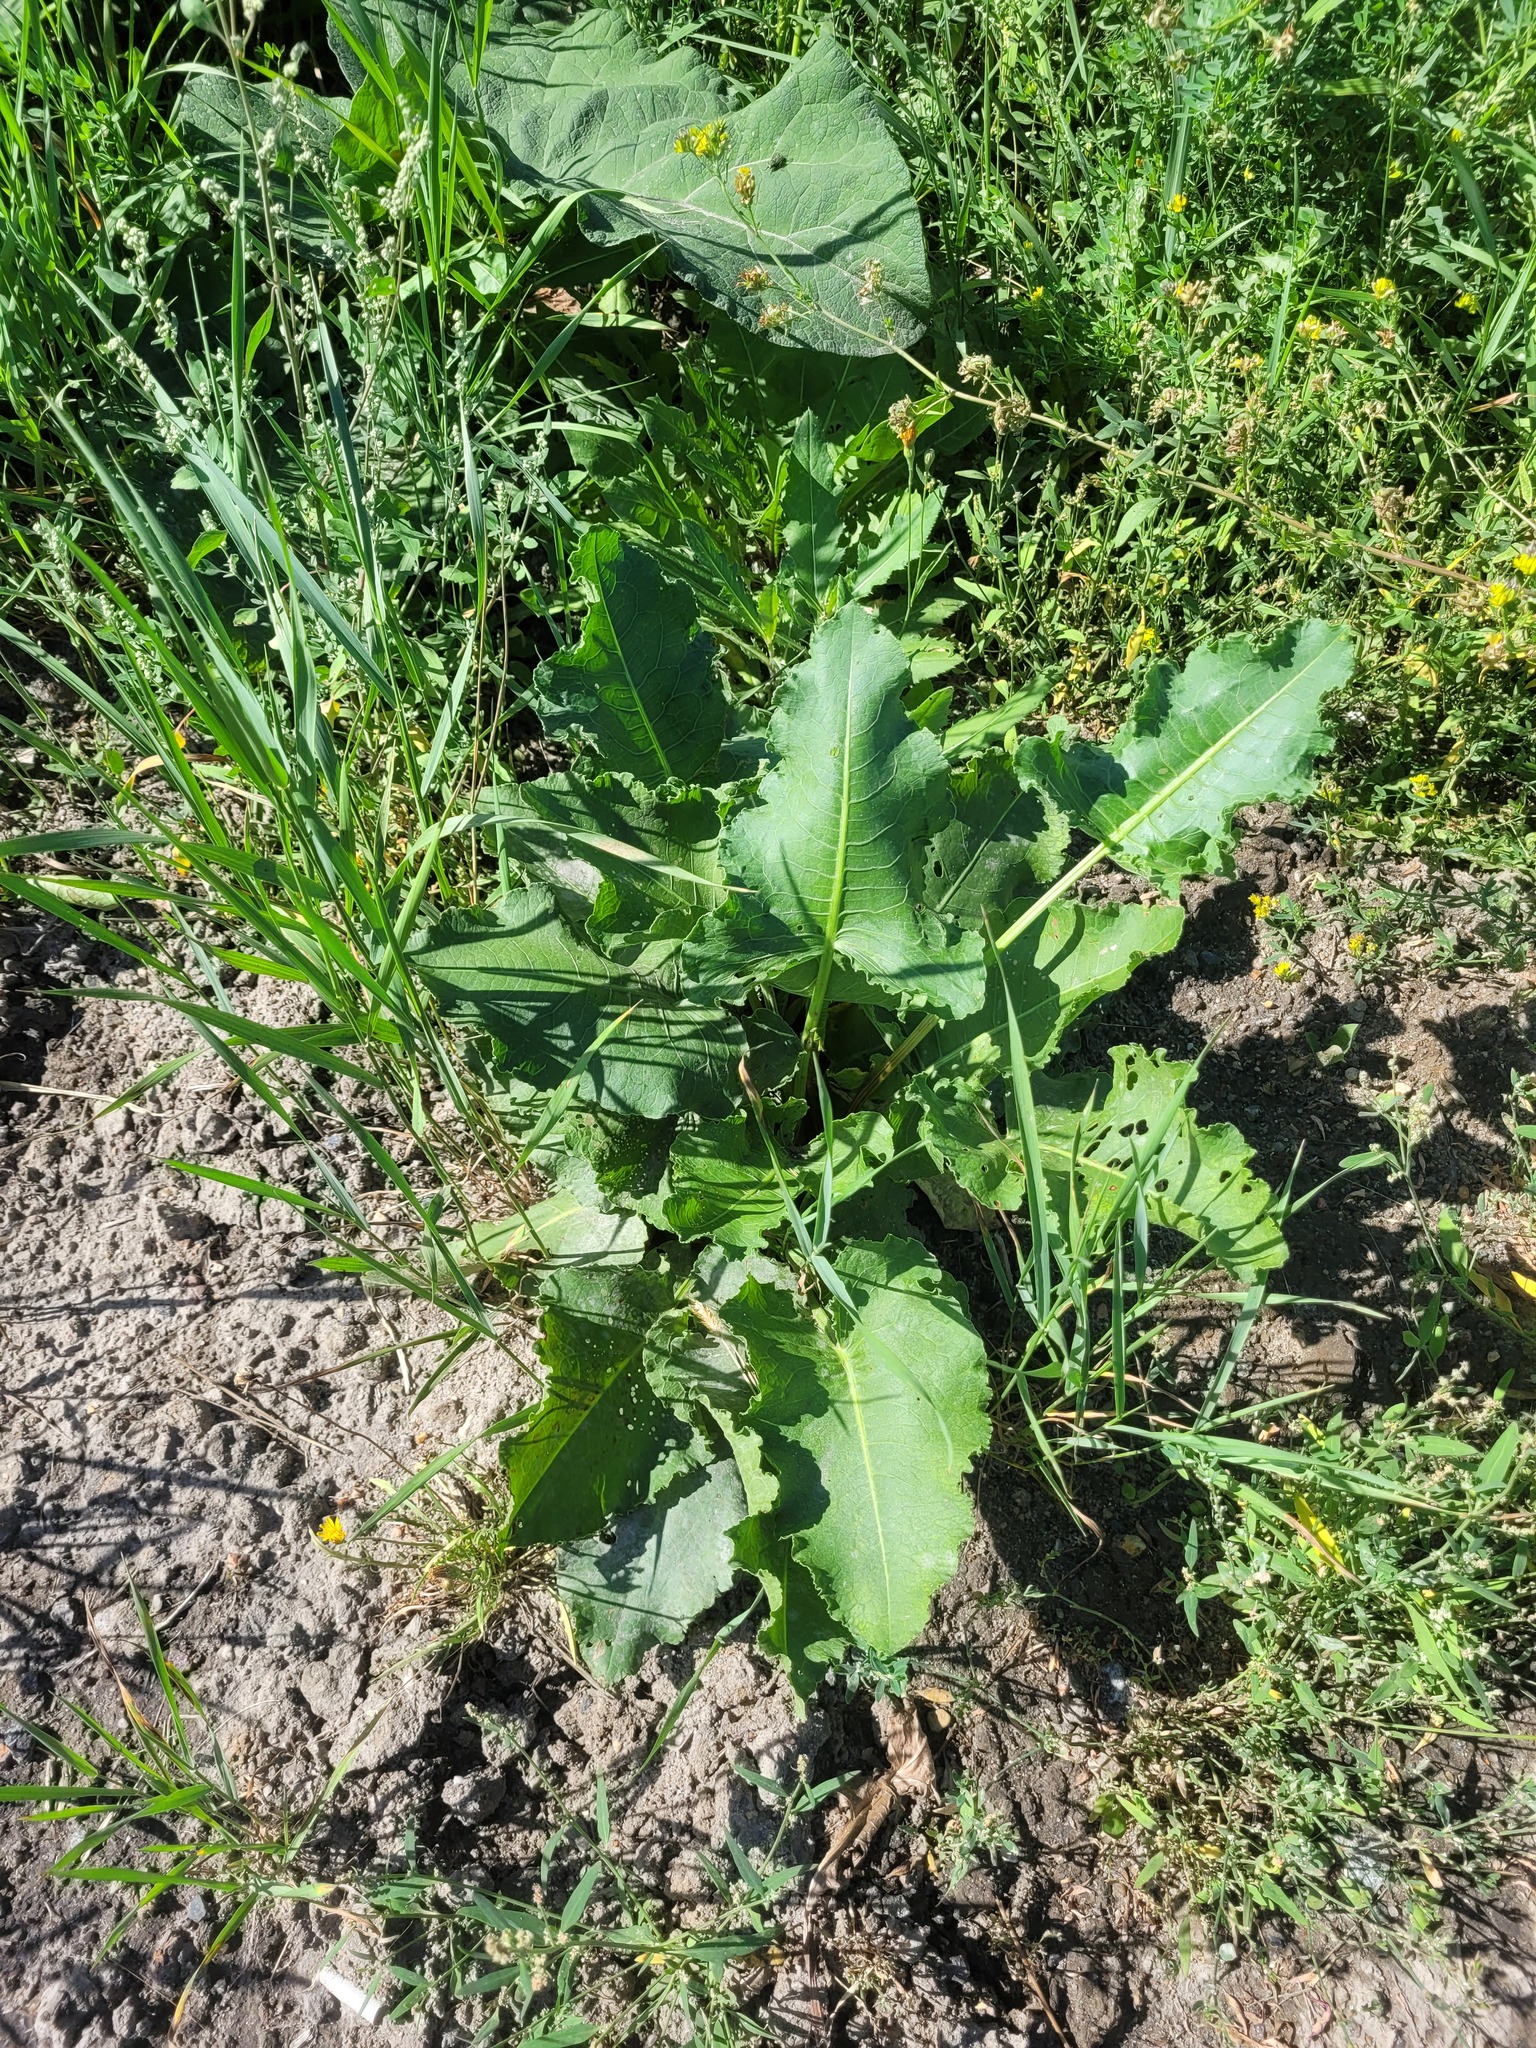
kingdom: Plantae
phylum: Tracheophyta
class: Magnoliopsida
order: Caryophyllales
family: Polygonaceae
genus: Rumex
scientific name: Rumex confertus
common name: Russian dock
